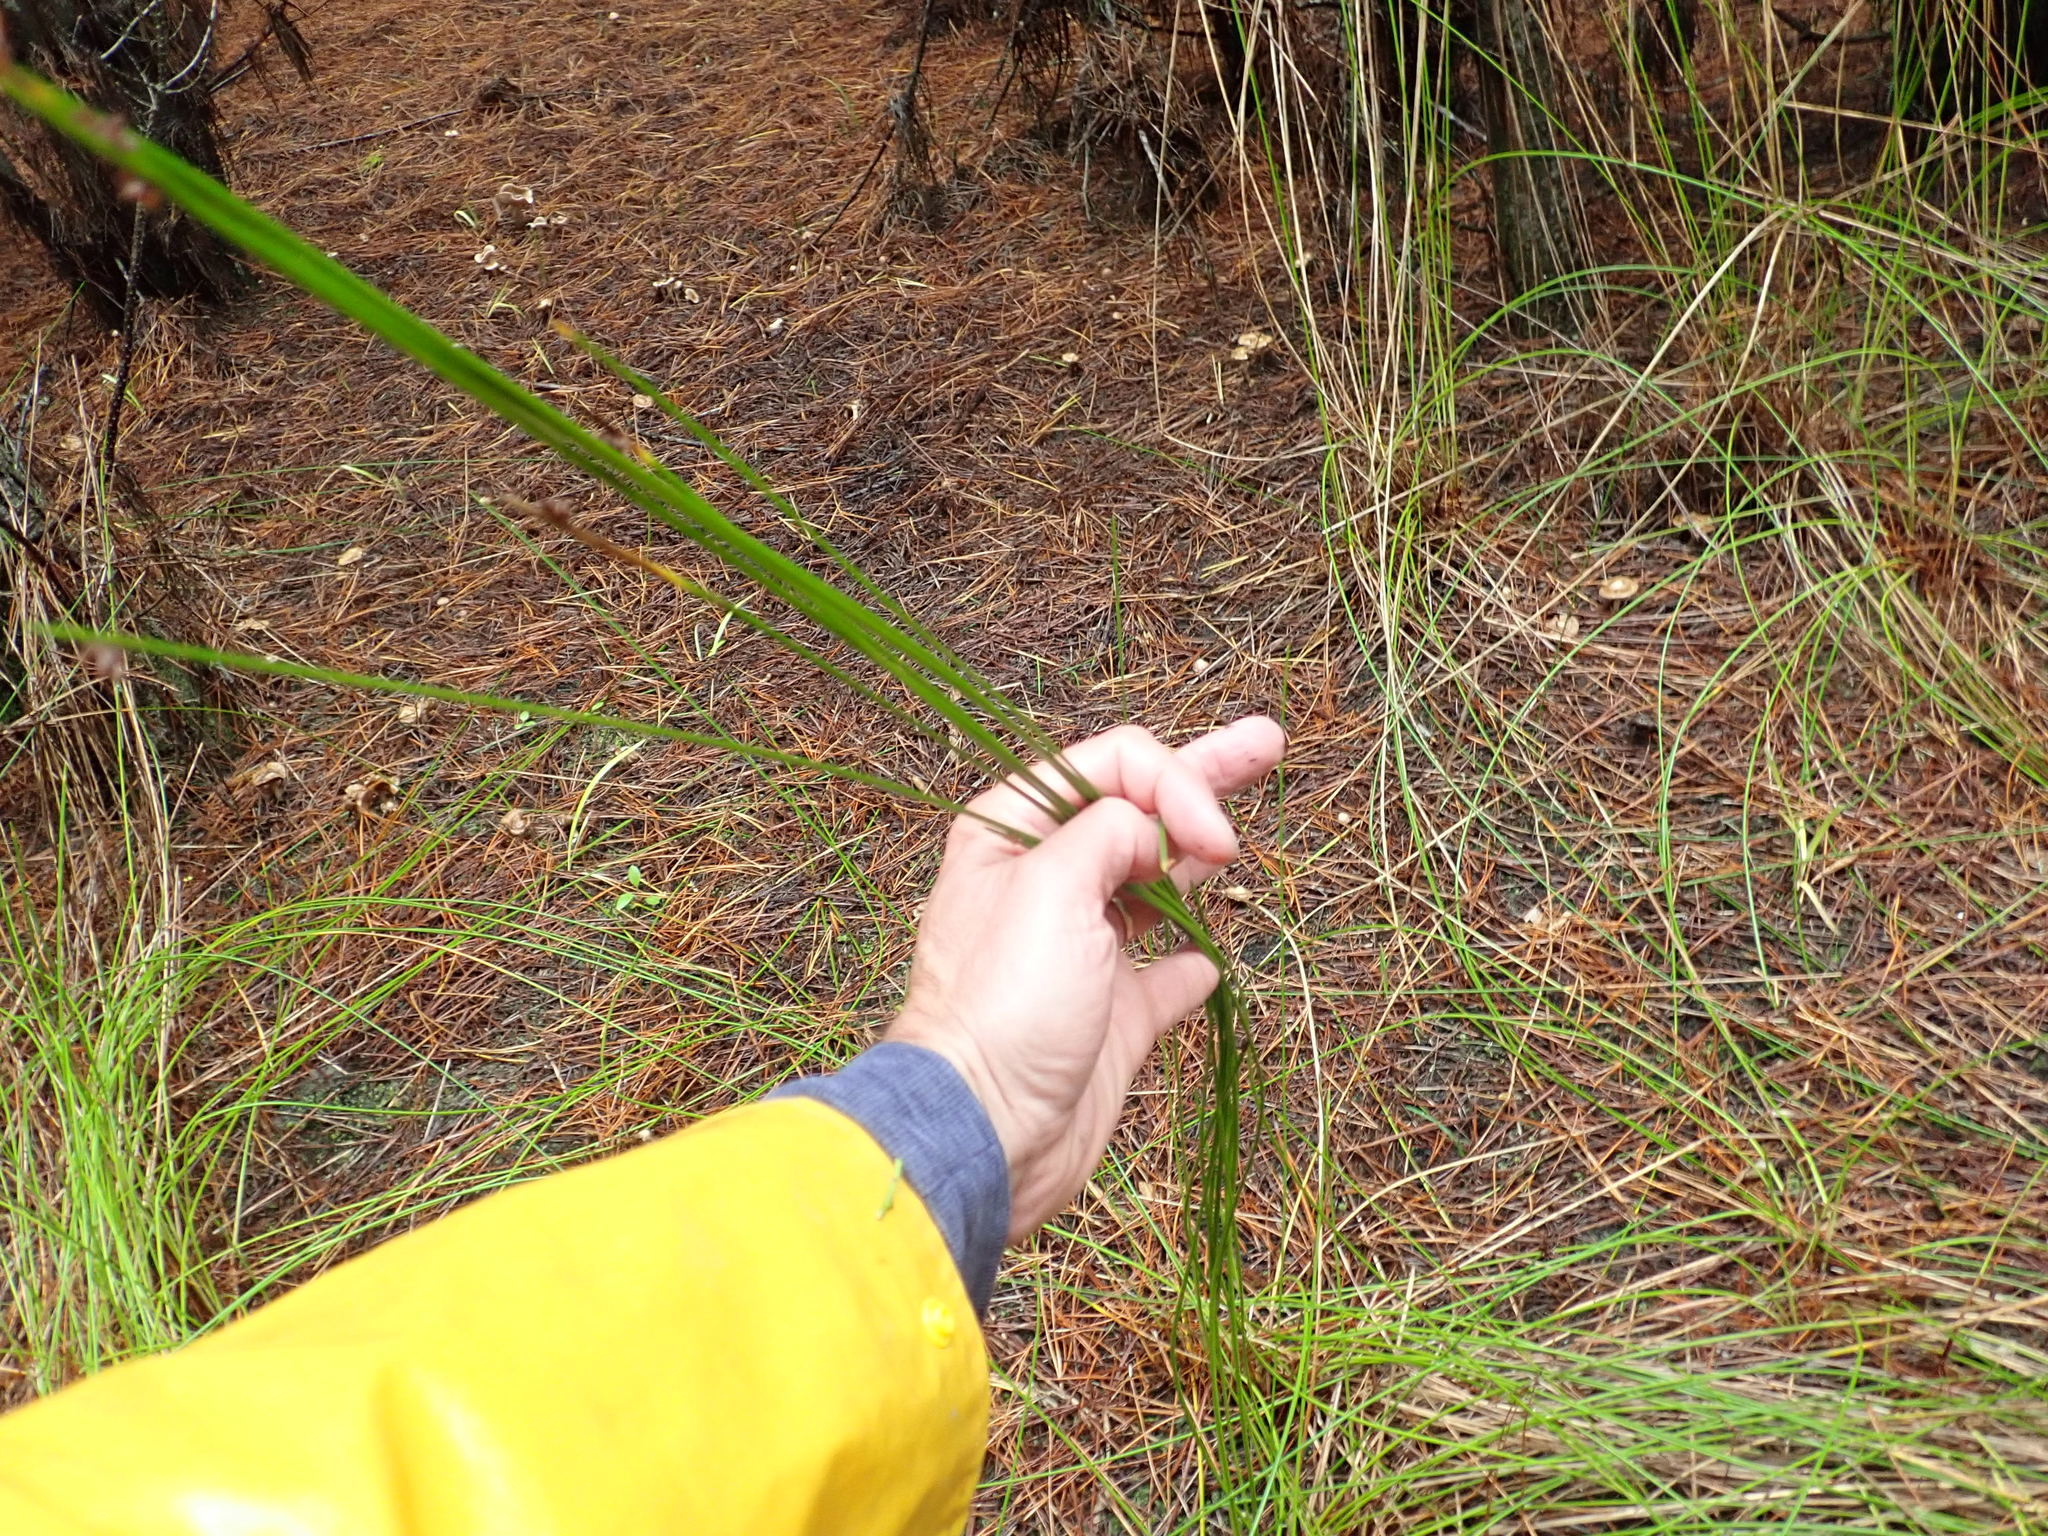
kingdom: Plantae
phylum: Tracheophyta
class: Liliopsida
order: Poales
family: Cyperaceae
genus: Ficinia
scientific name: Ficinia nodosa
